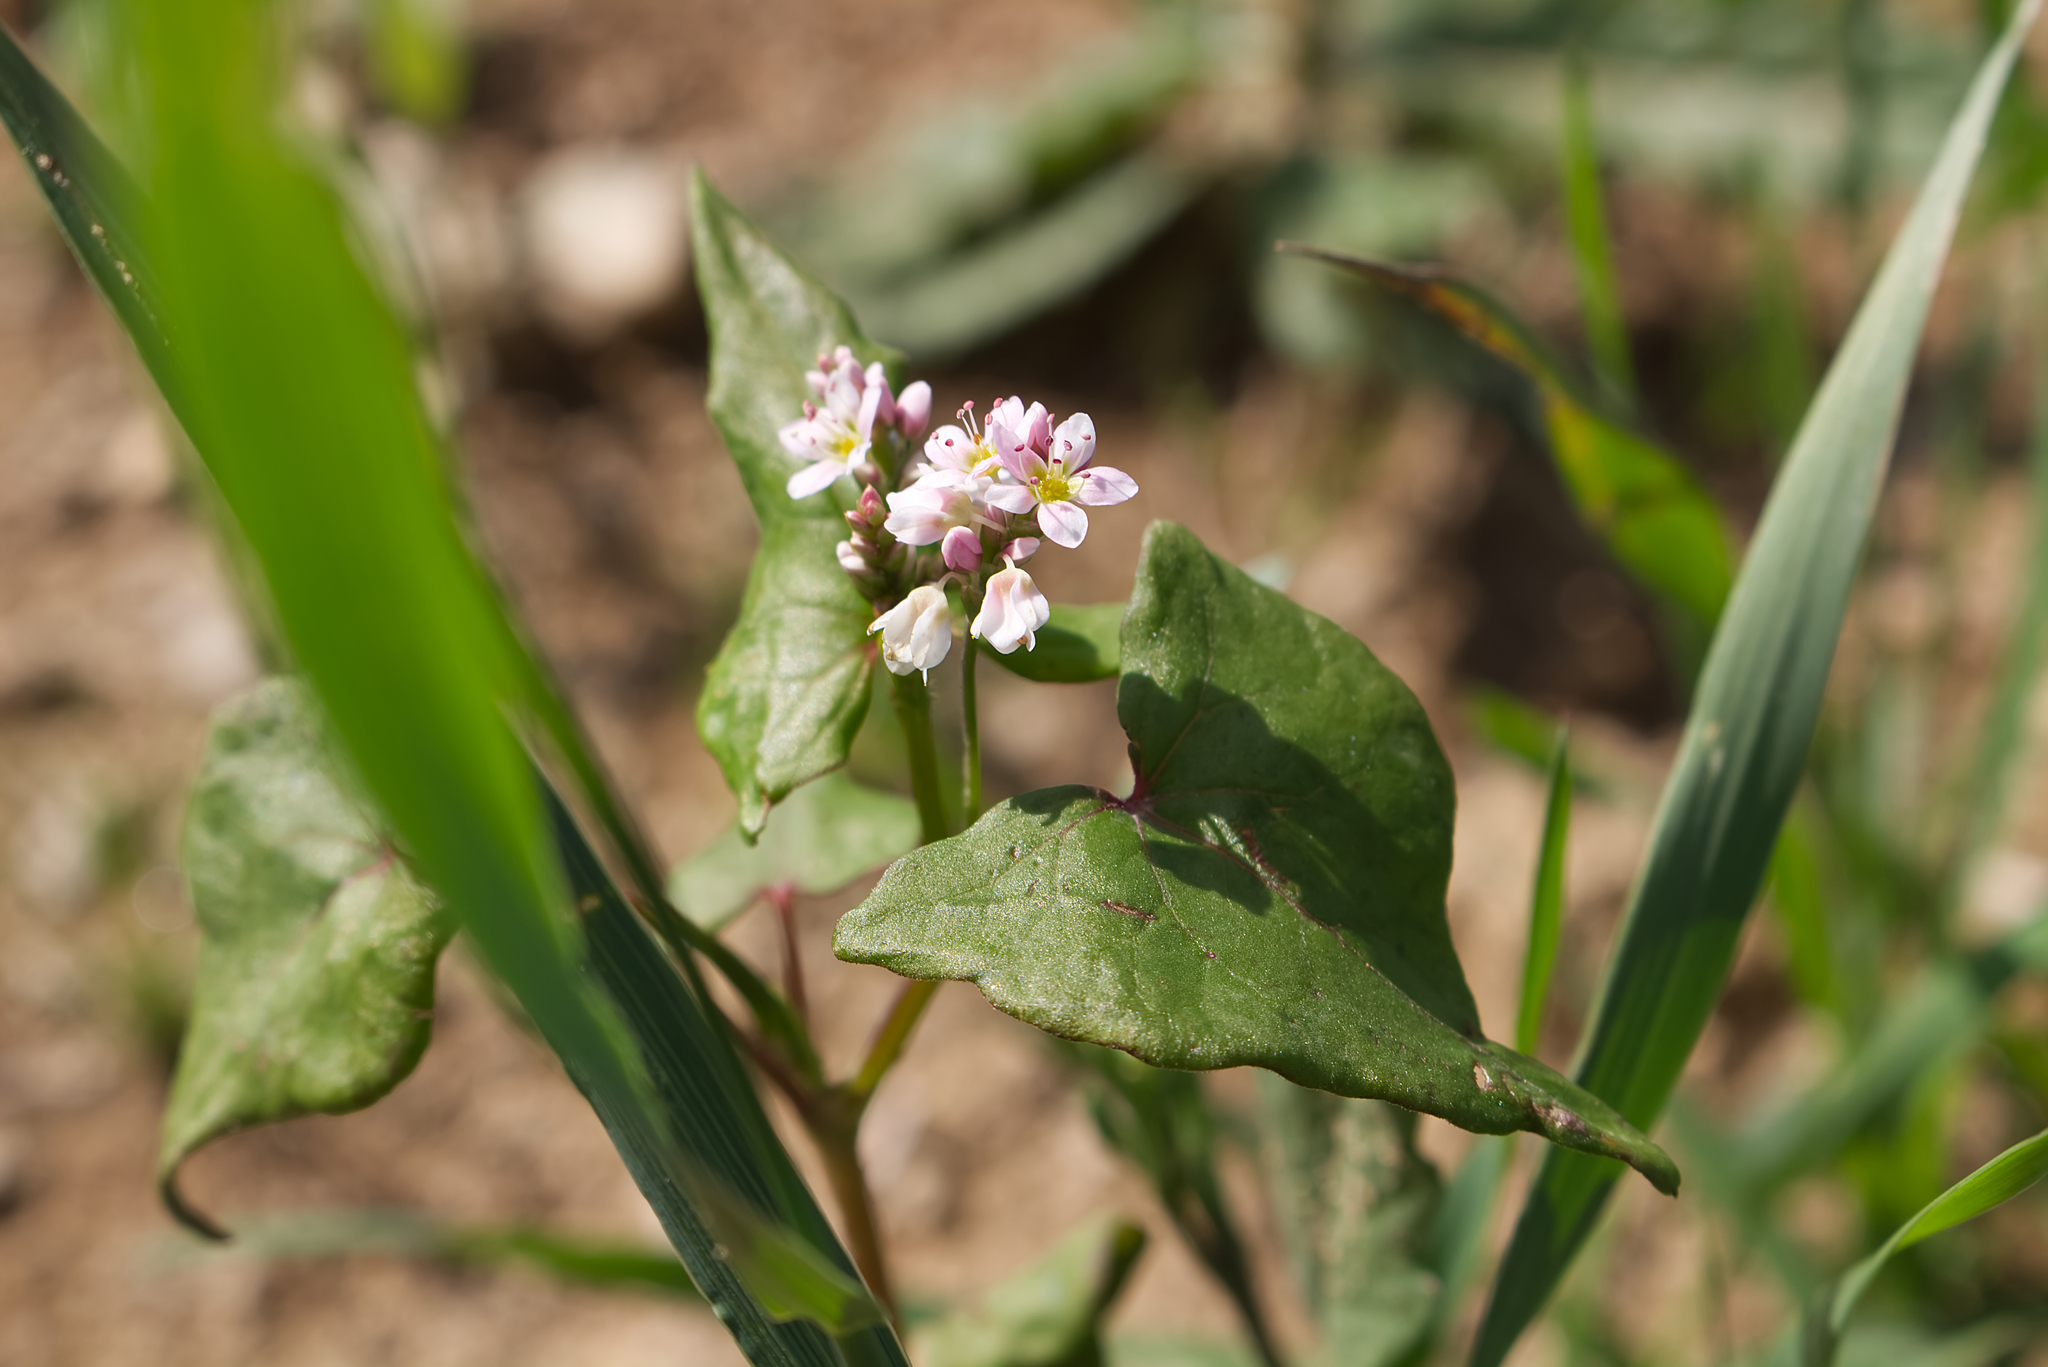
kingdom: Plantae
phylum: Tracheophyta
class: Magnoliopsida
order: Caryophyllales
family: Polygonaceae
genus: Fagopyrum
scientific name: Fagopyrum esculentum
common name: Buckwheat
